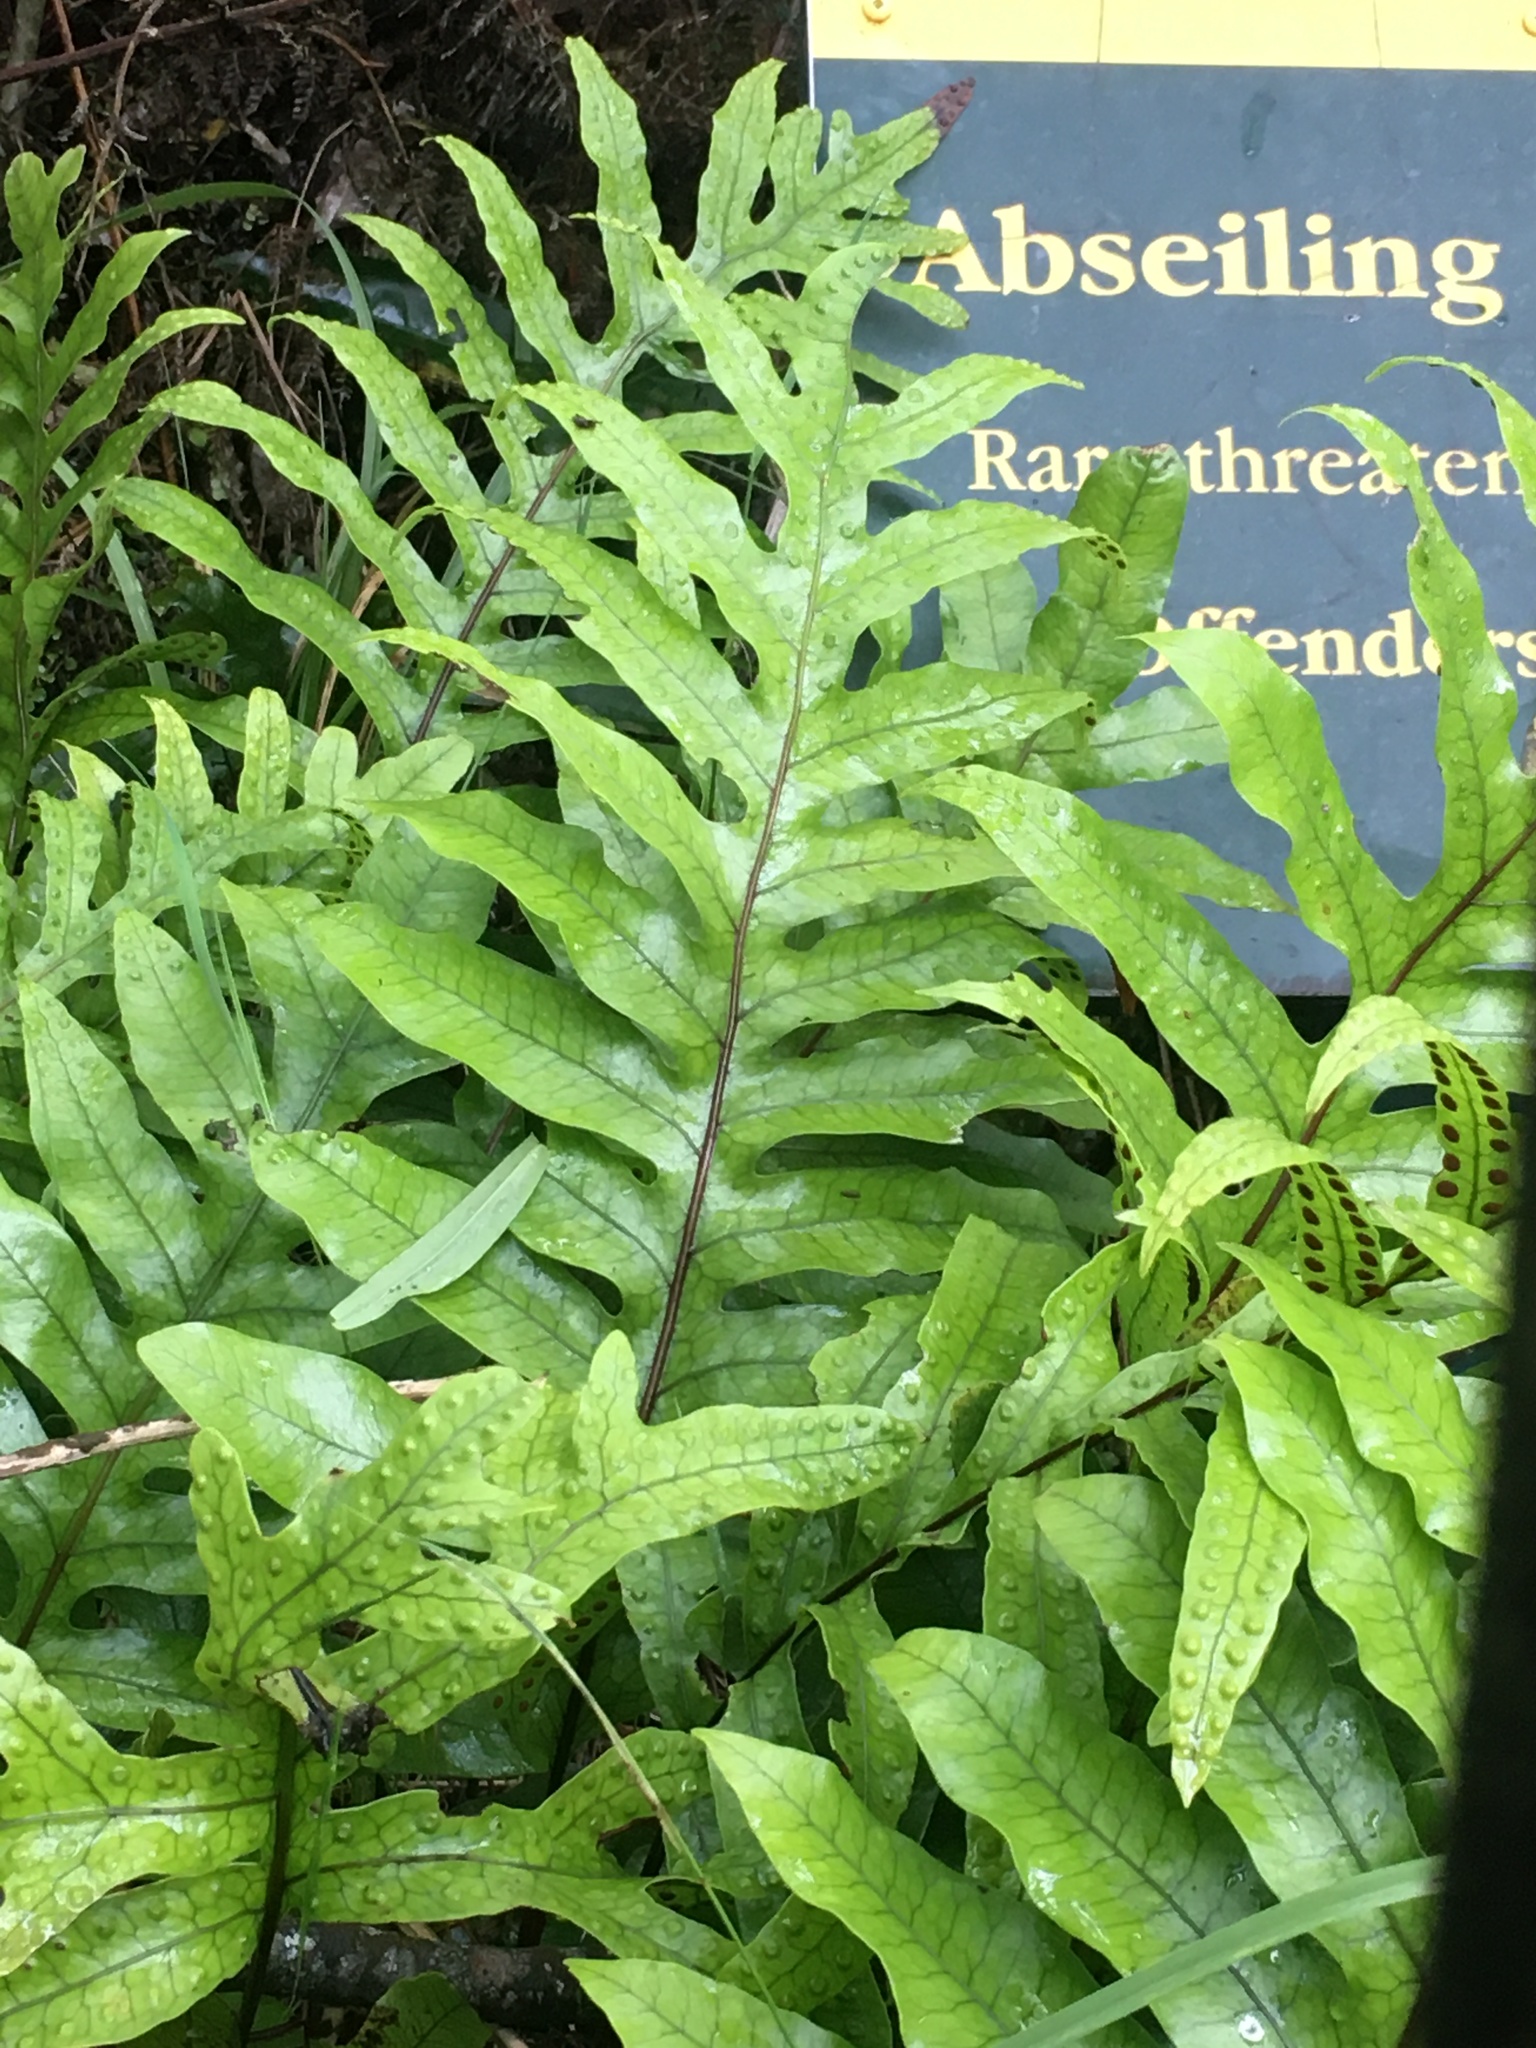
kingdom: Plantae
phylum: Tracheophyta
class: Polypodiopsida
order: Polypodiales
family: Polypodiaceae
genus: Lecanopteris
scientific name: Lecanopteris pustulata
